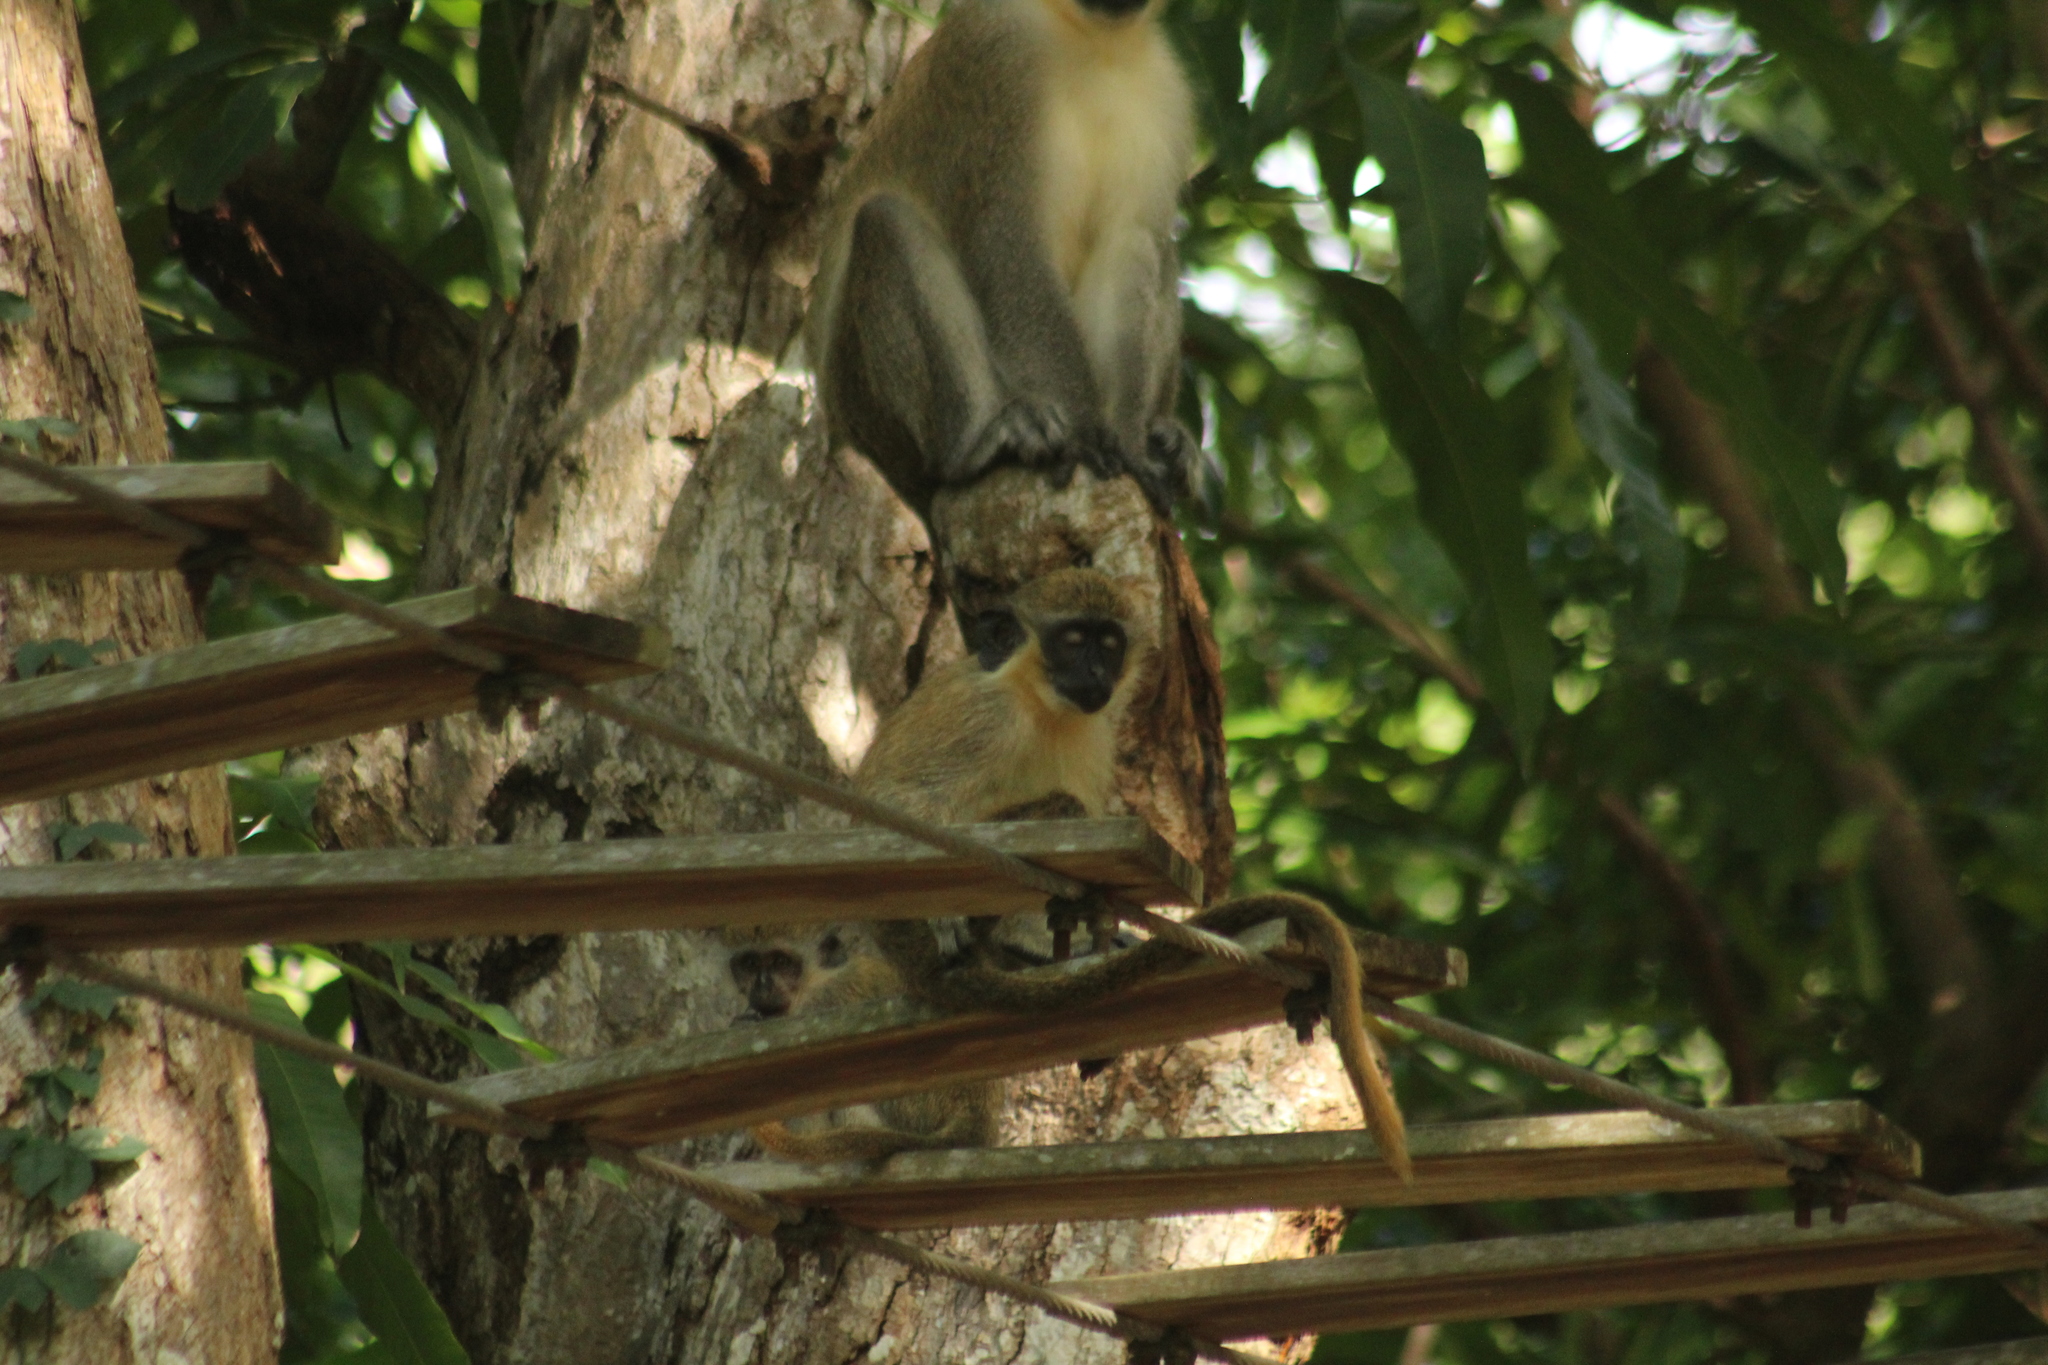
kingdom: Animalia
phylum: Chordata
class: Mammalia
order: Primates
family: Cercopithecidae
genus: Chlorocebus
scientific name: Chlorocebus sabaeus
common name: Green monkey
